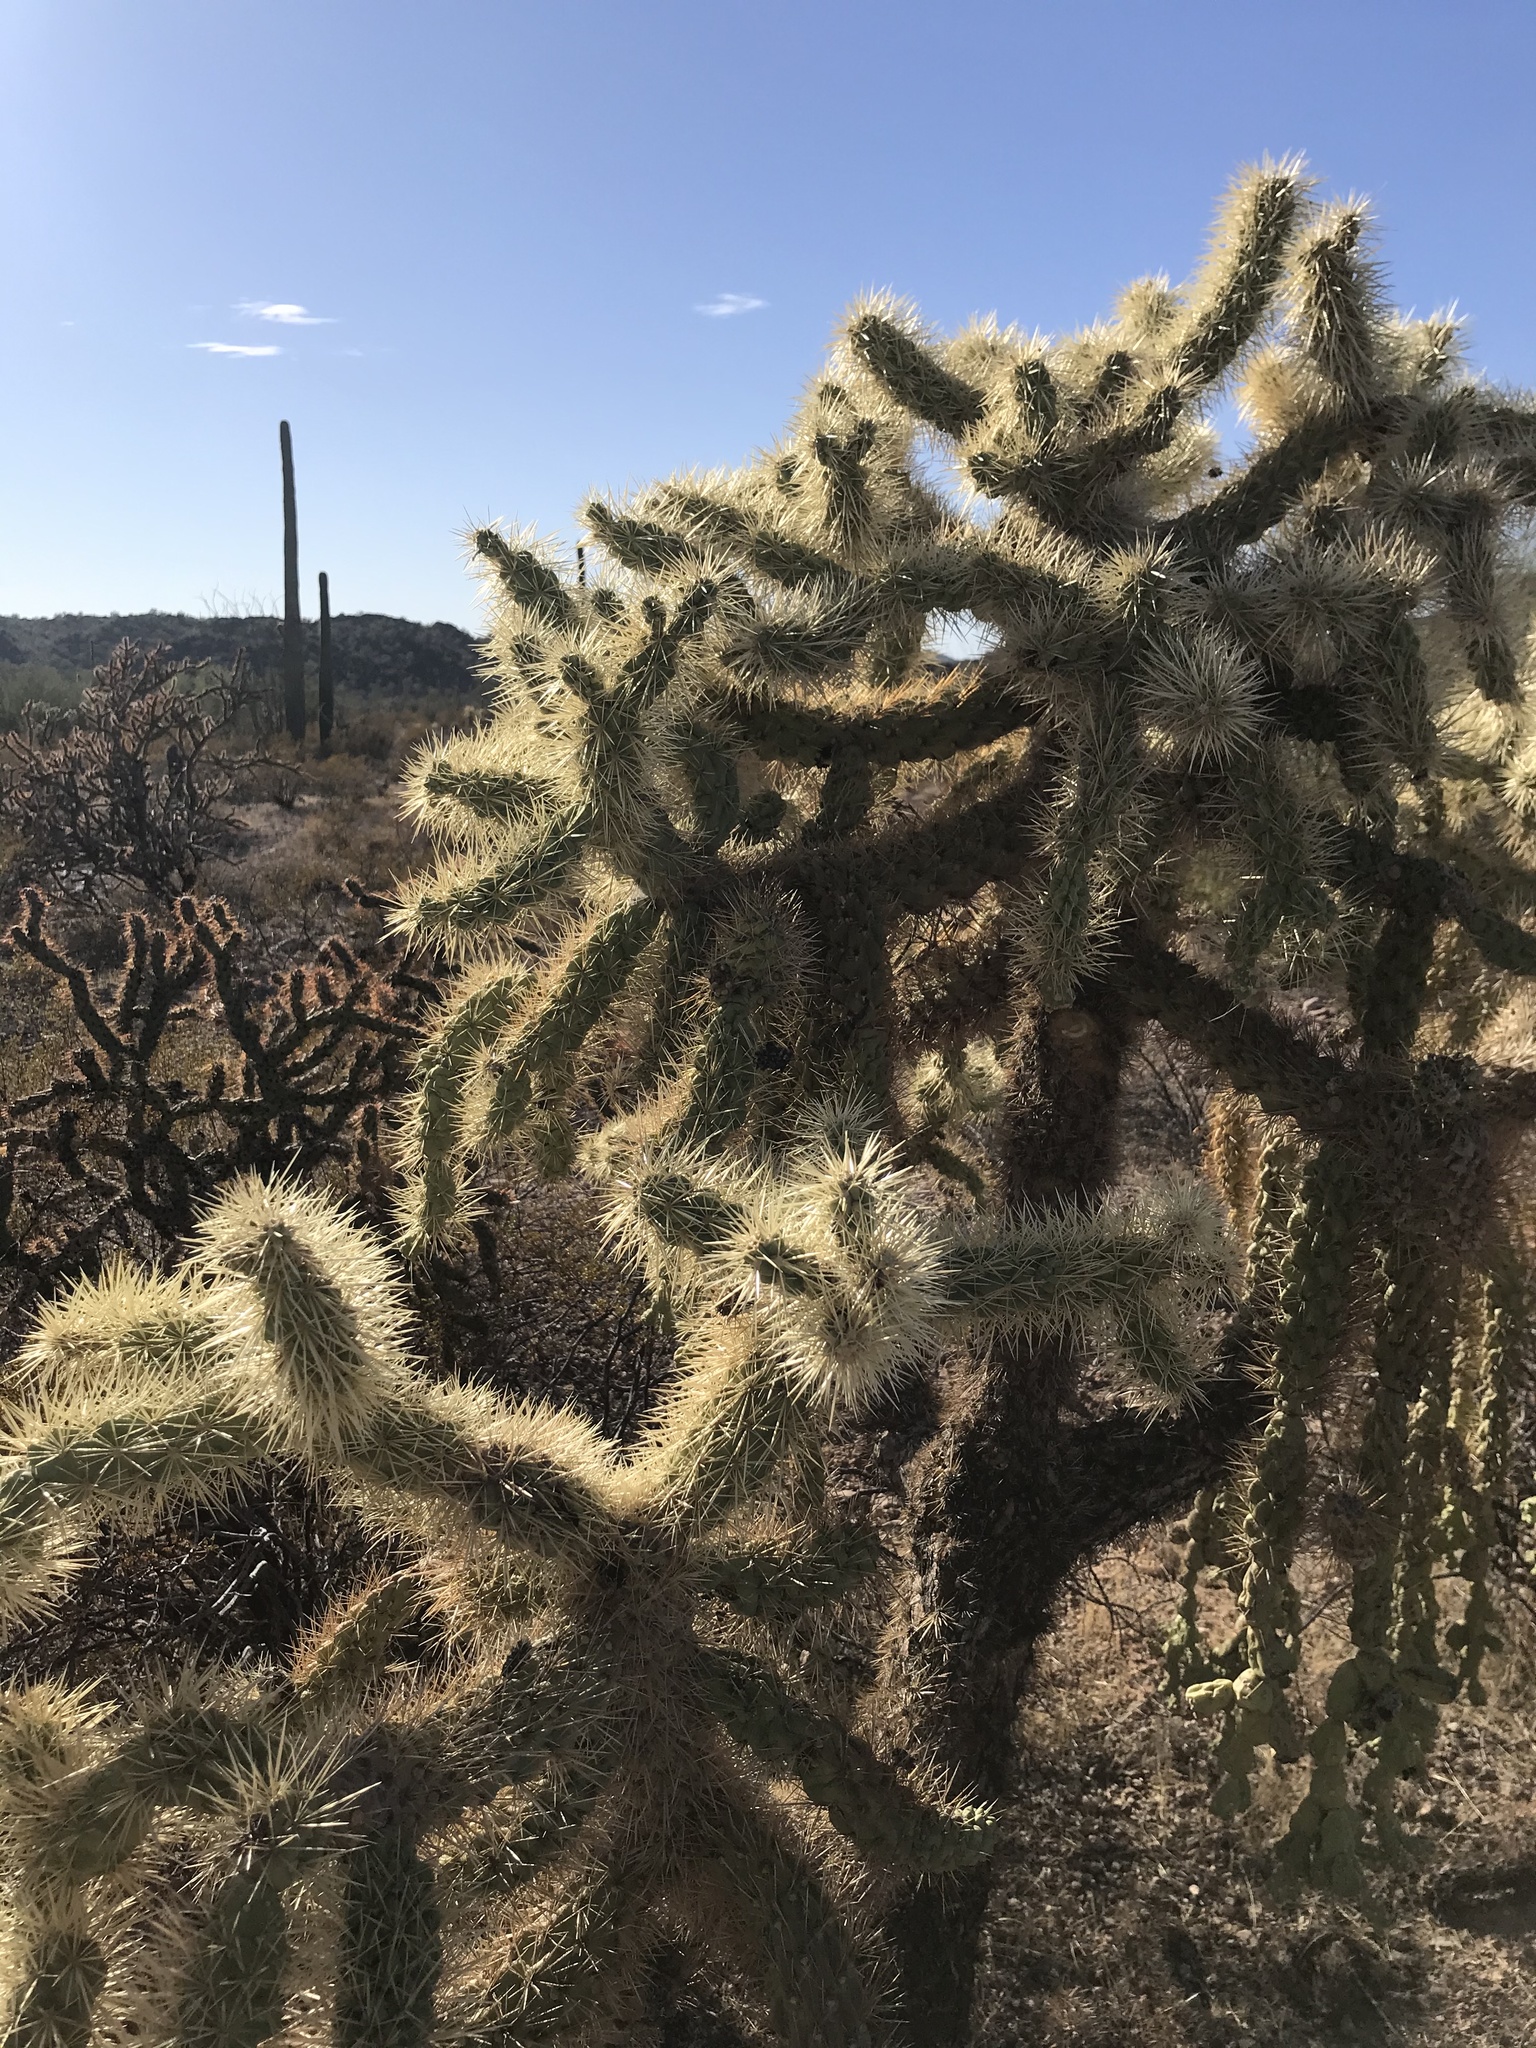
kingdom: Plantae
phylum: Tracheophyta
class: Magnoliopsida
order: Caryophyllales
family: Cactaceae
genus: Cylindropuntia
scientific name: Cylindropuntia fulgida
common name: Jumping cholla
